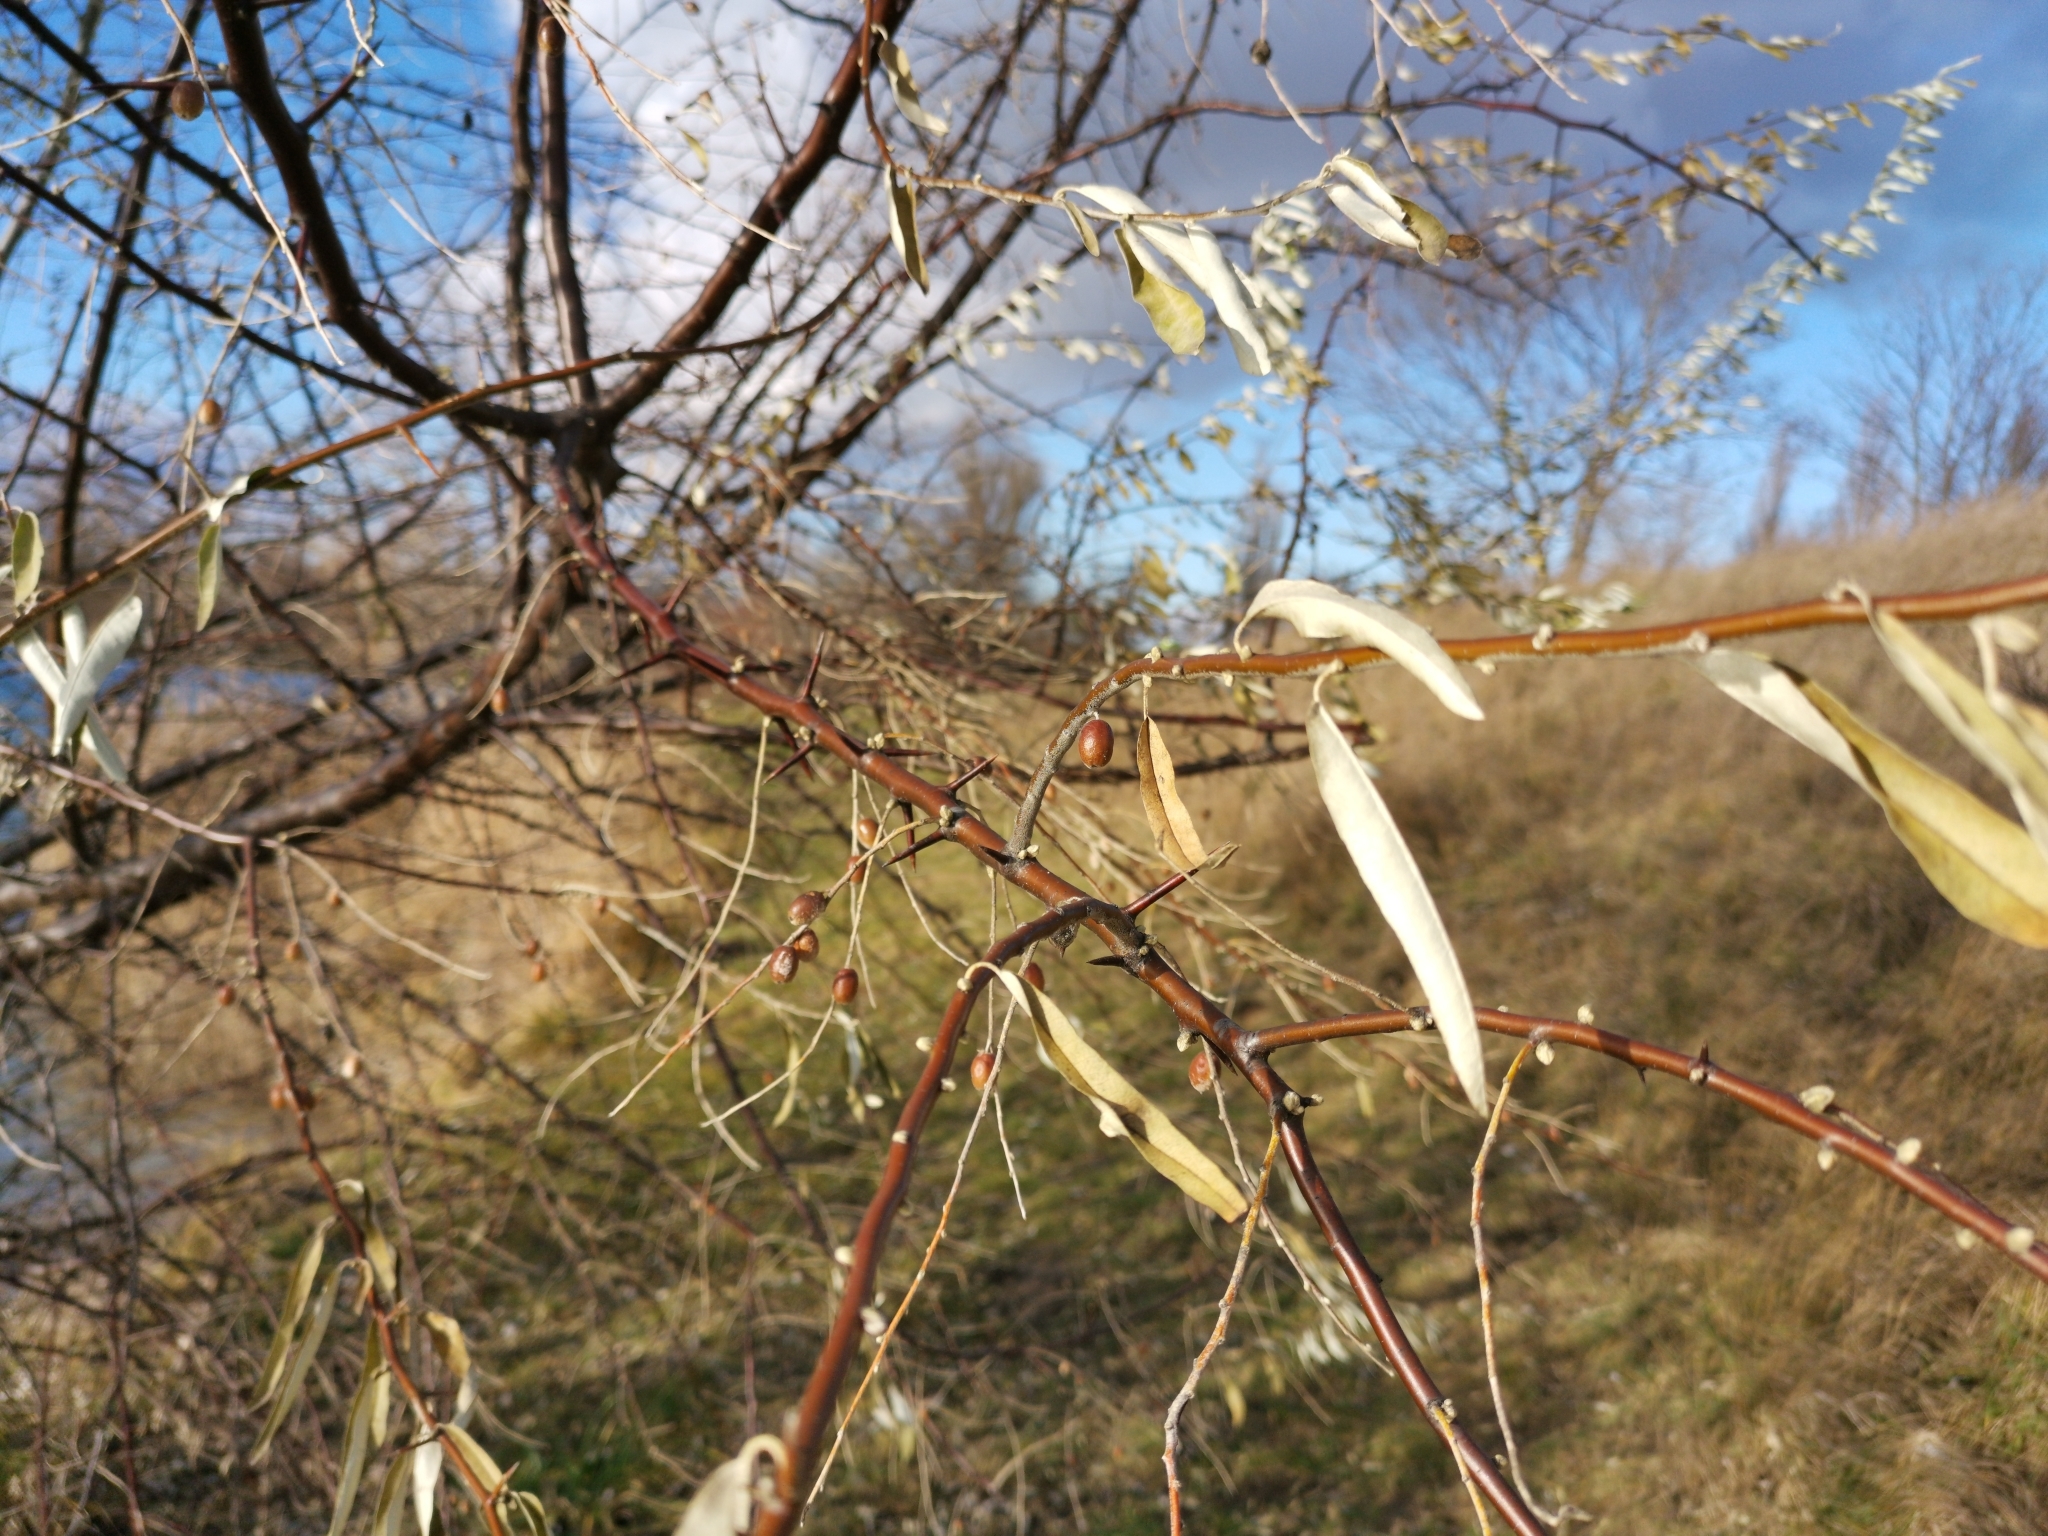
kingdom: Plantae
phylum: Tracheophyta
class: Magnoliopsida
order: Rosales
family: Elaeagnaceae
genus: Elaeagnus
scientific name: Elaeagnus angustifolia
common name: Russian olive
